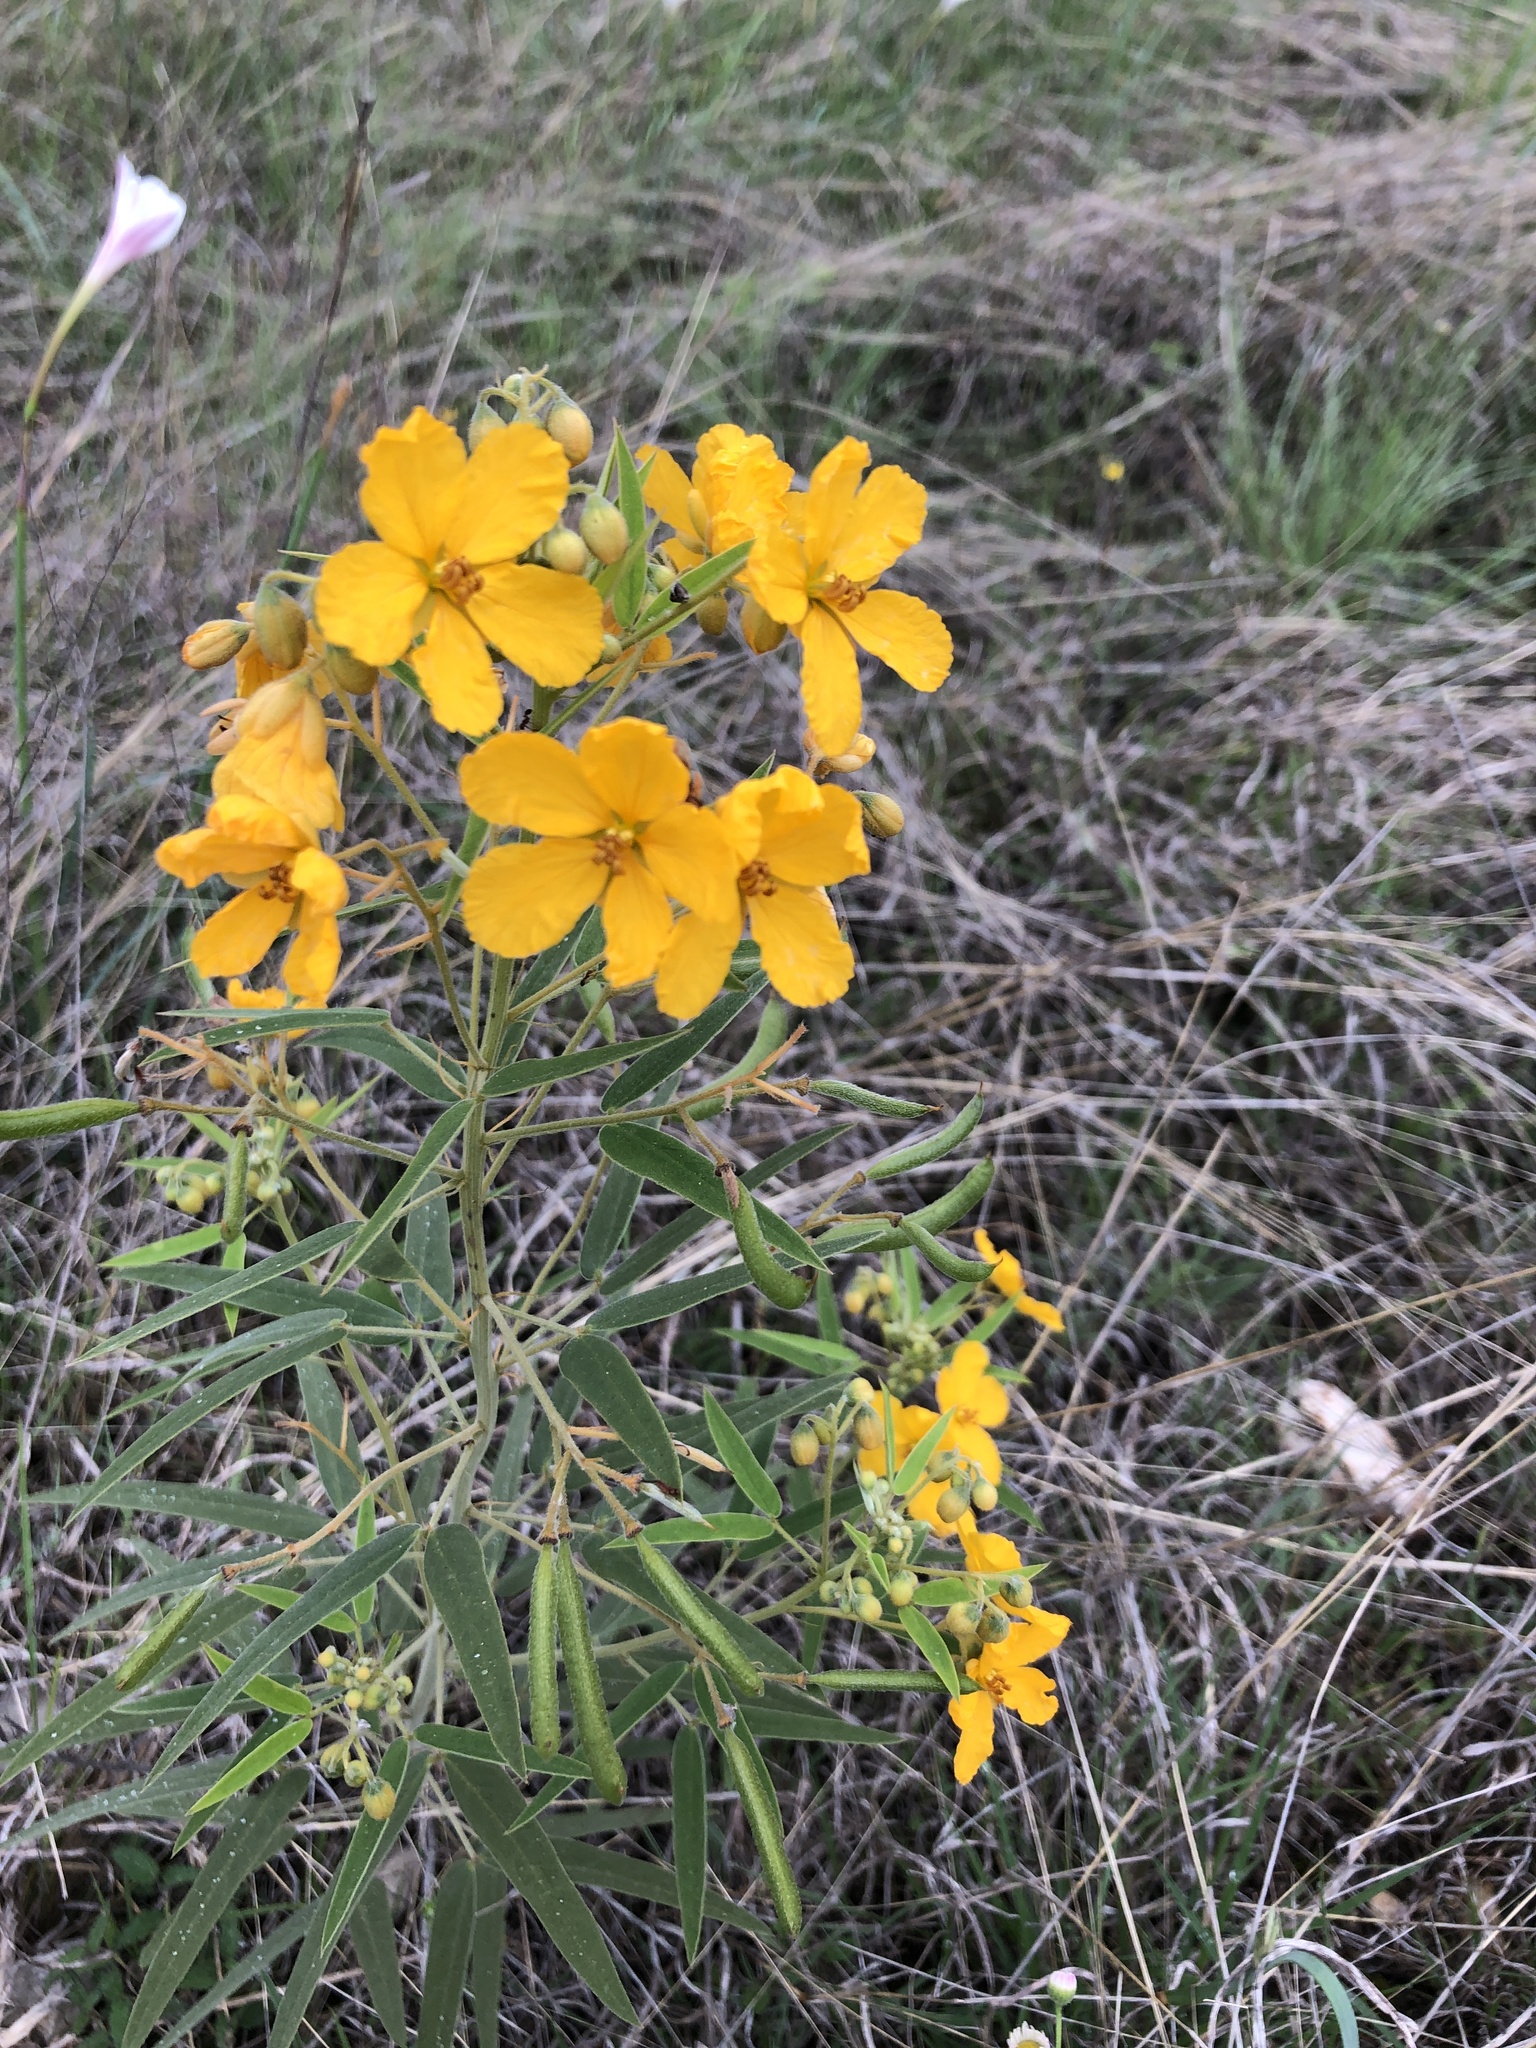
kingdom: Plantae
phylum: Tracheophyta
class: Magnoliopsida
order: Fabales
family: Fabaceae
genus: Senna
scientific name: Senna roemeriana
